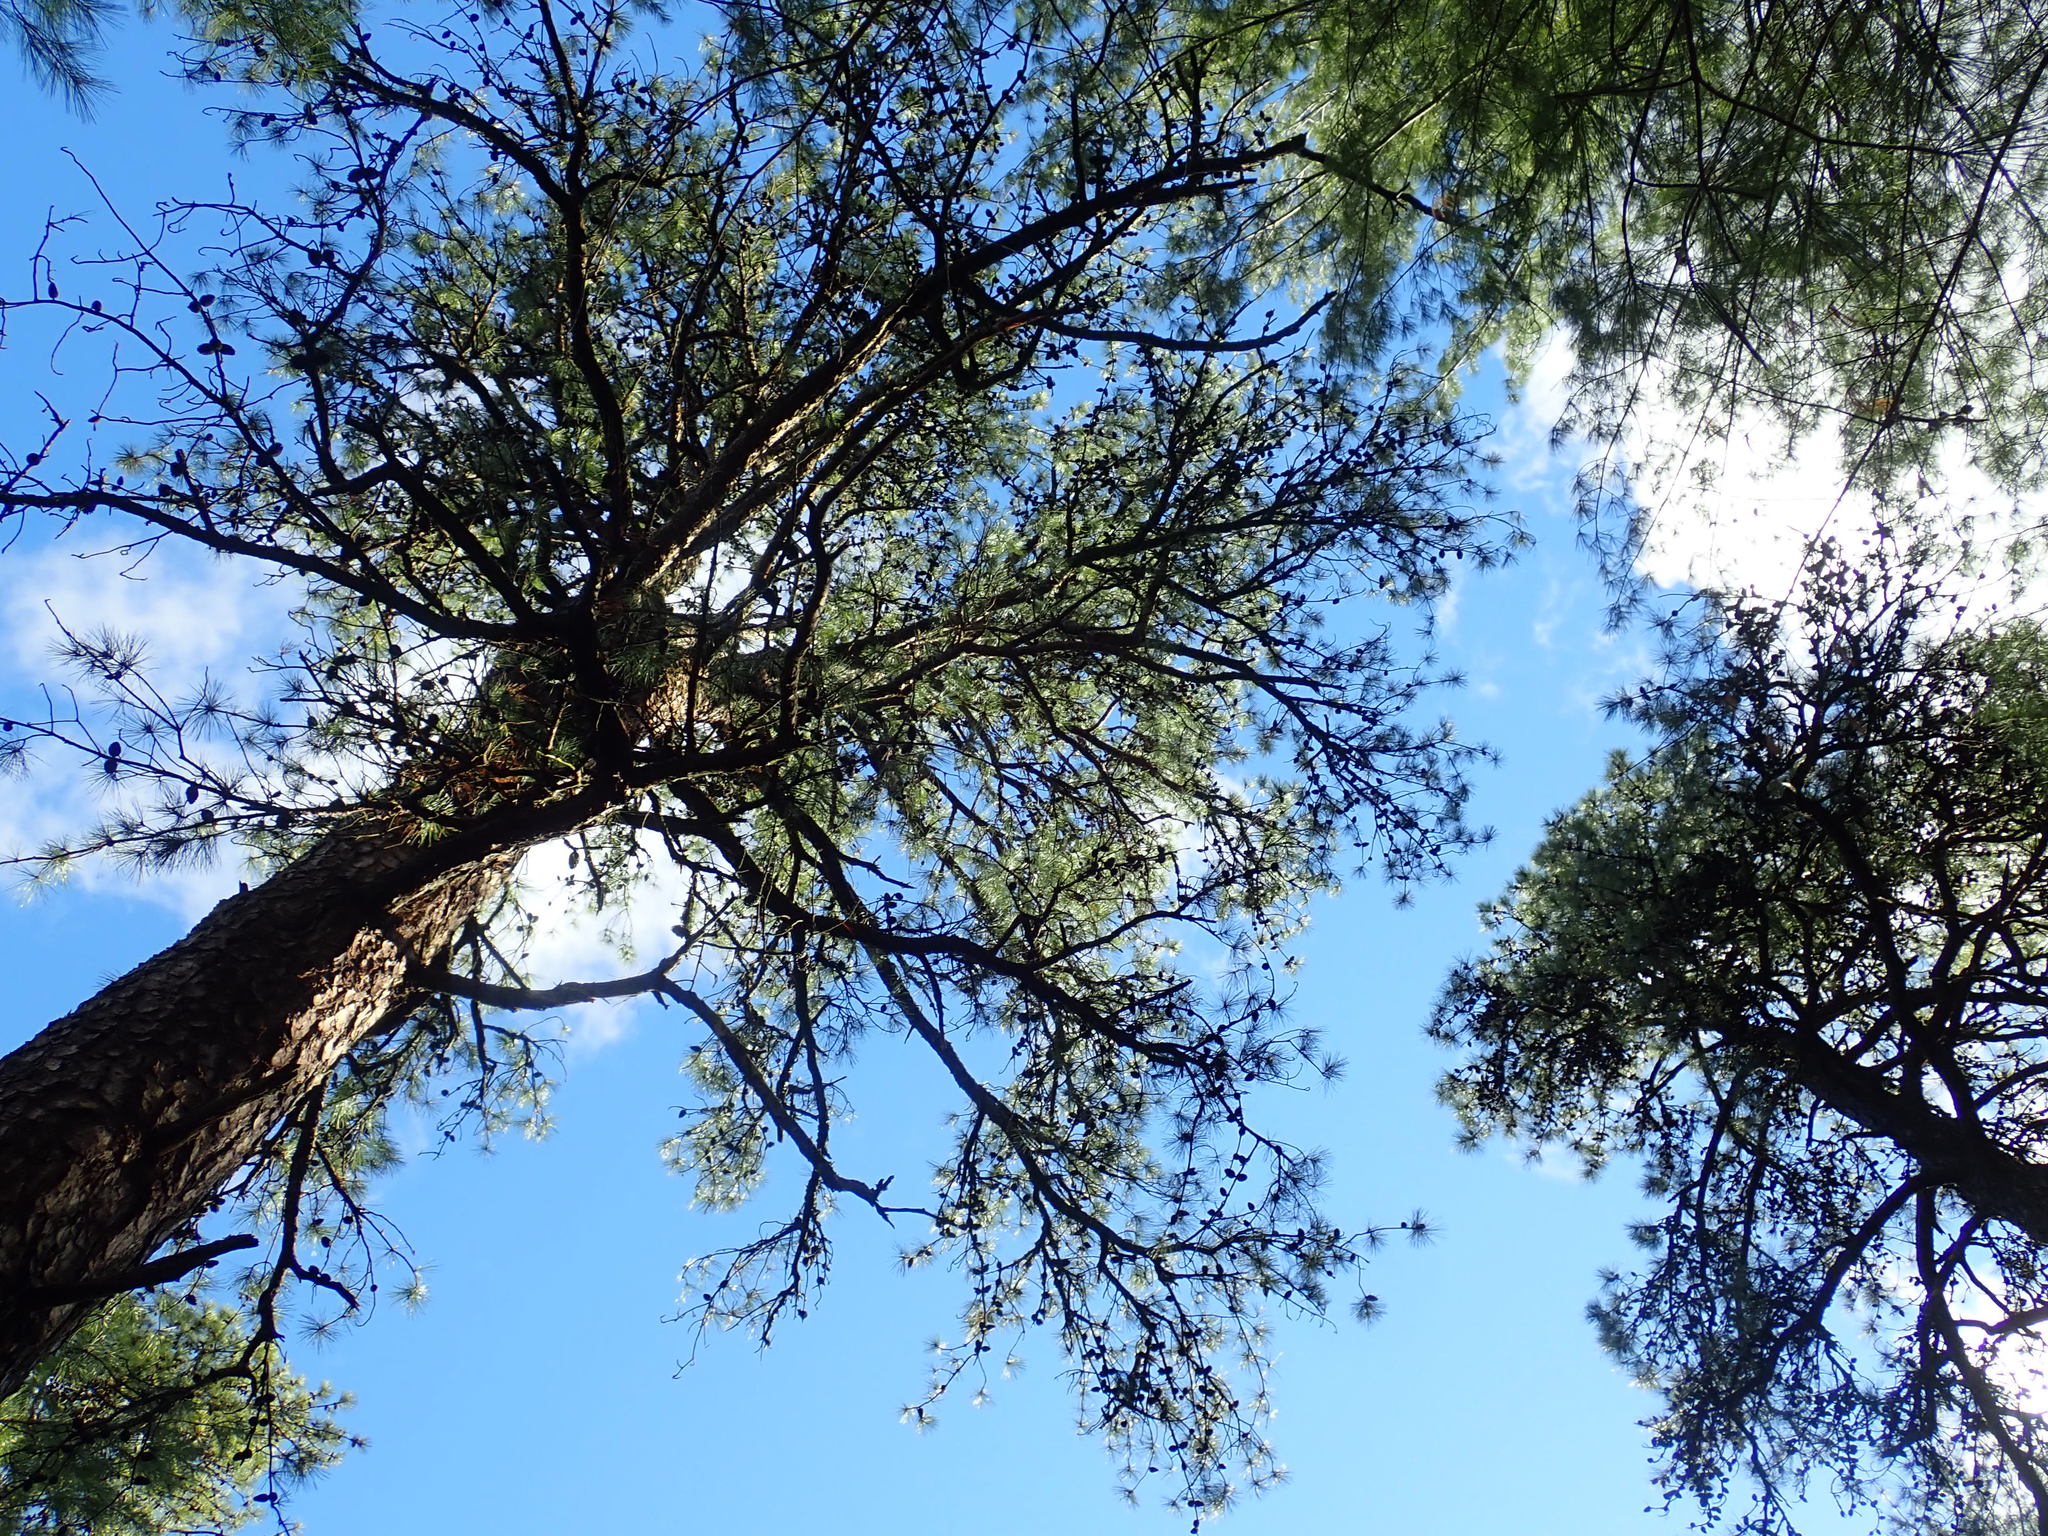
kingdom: Plantae
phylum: Tracheophyta
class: Pinopsida
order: Pinales
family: Pinaceae
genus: Pinus
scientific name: Pinus rigida
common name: Pitch pine
